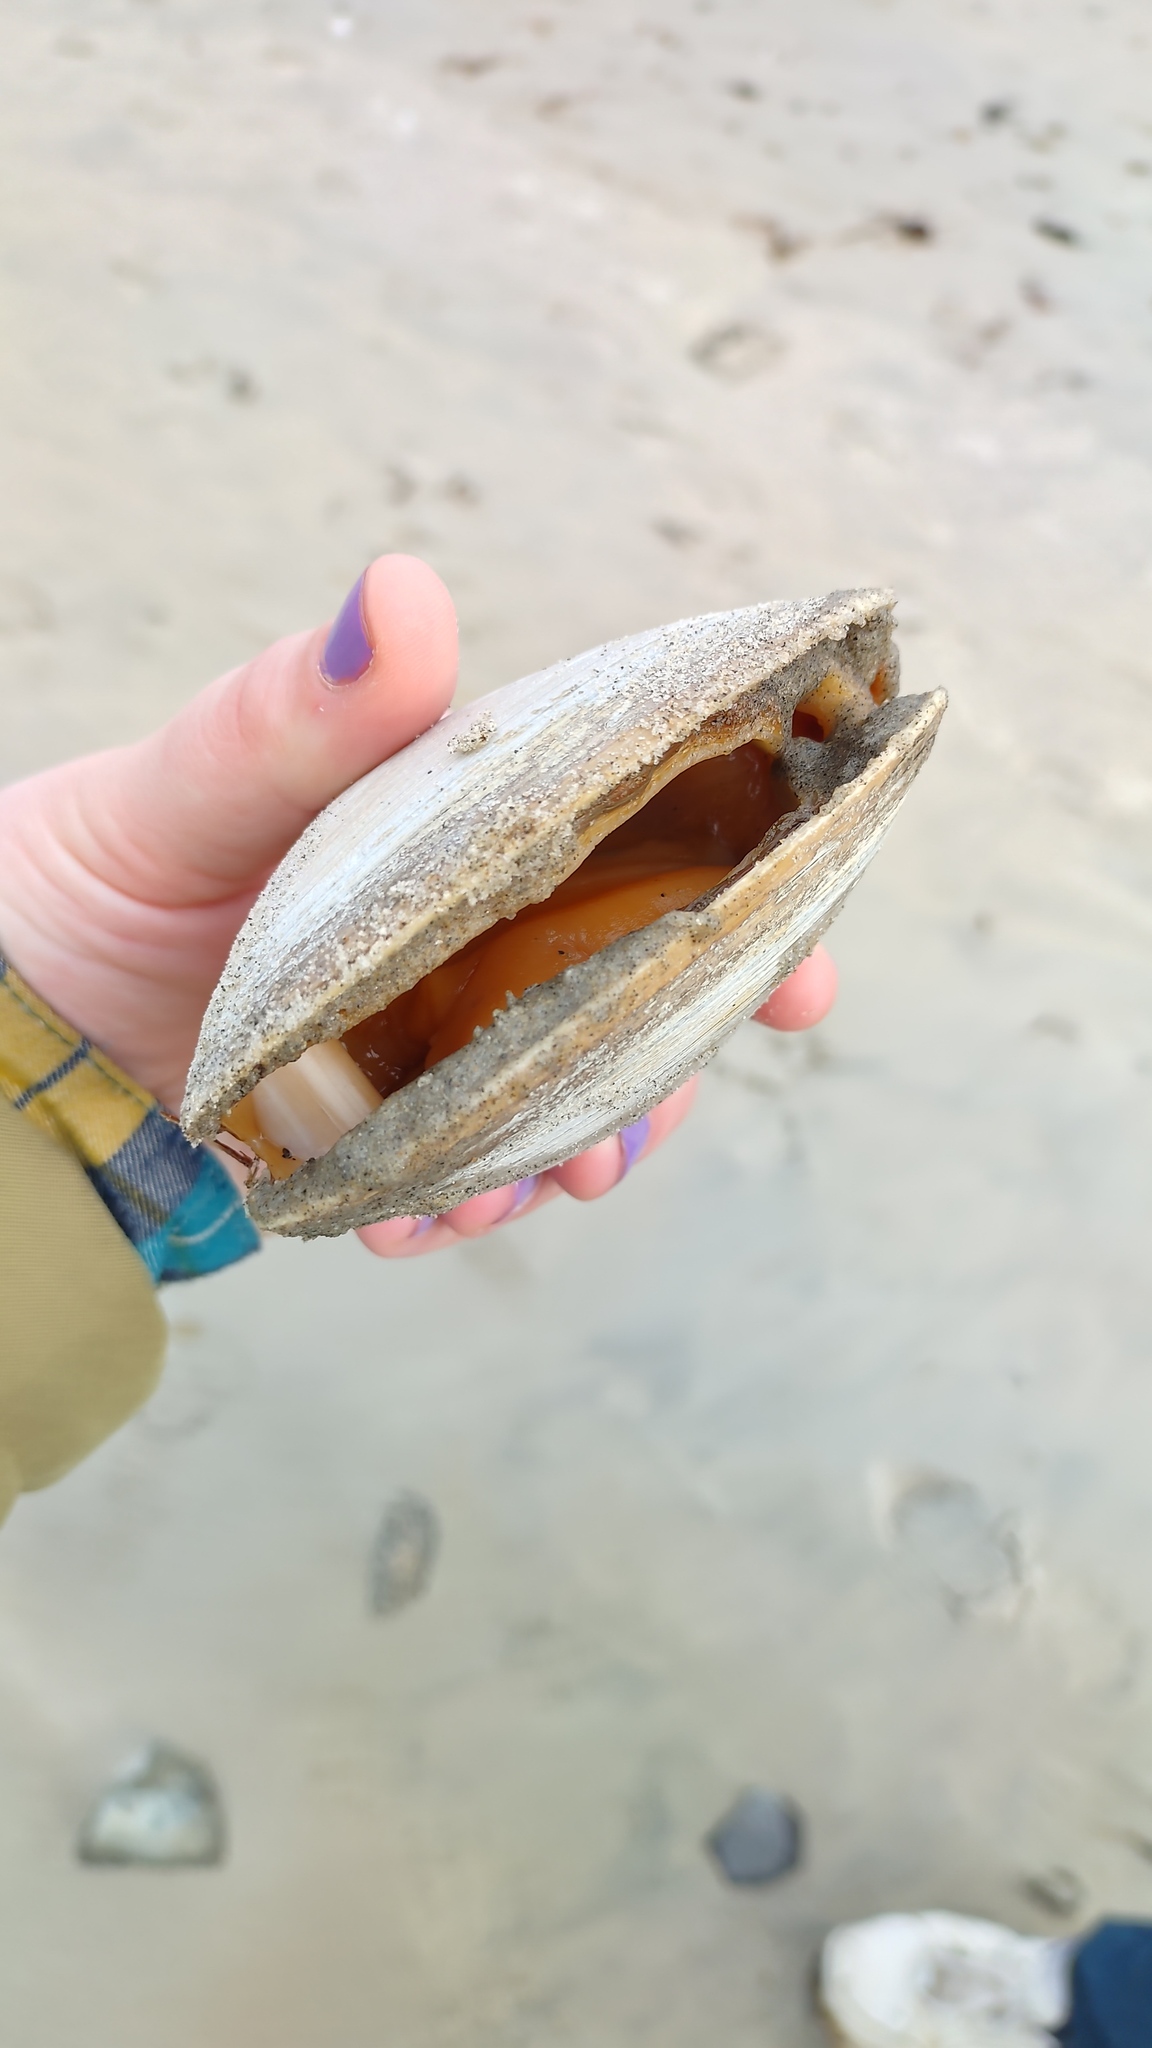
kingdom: Animalia
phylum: Mollusca
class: Bivalvia
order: Venerida
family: Mactridae
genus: Spisula
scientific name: Spisula solidissima
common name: Atlantic surf clam
